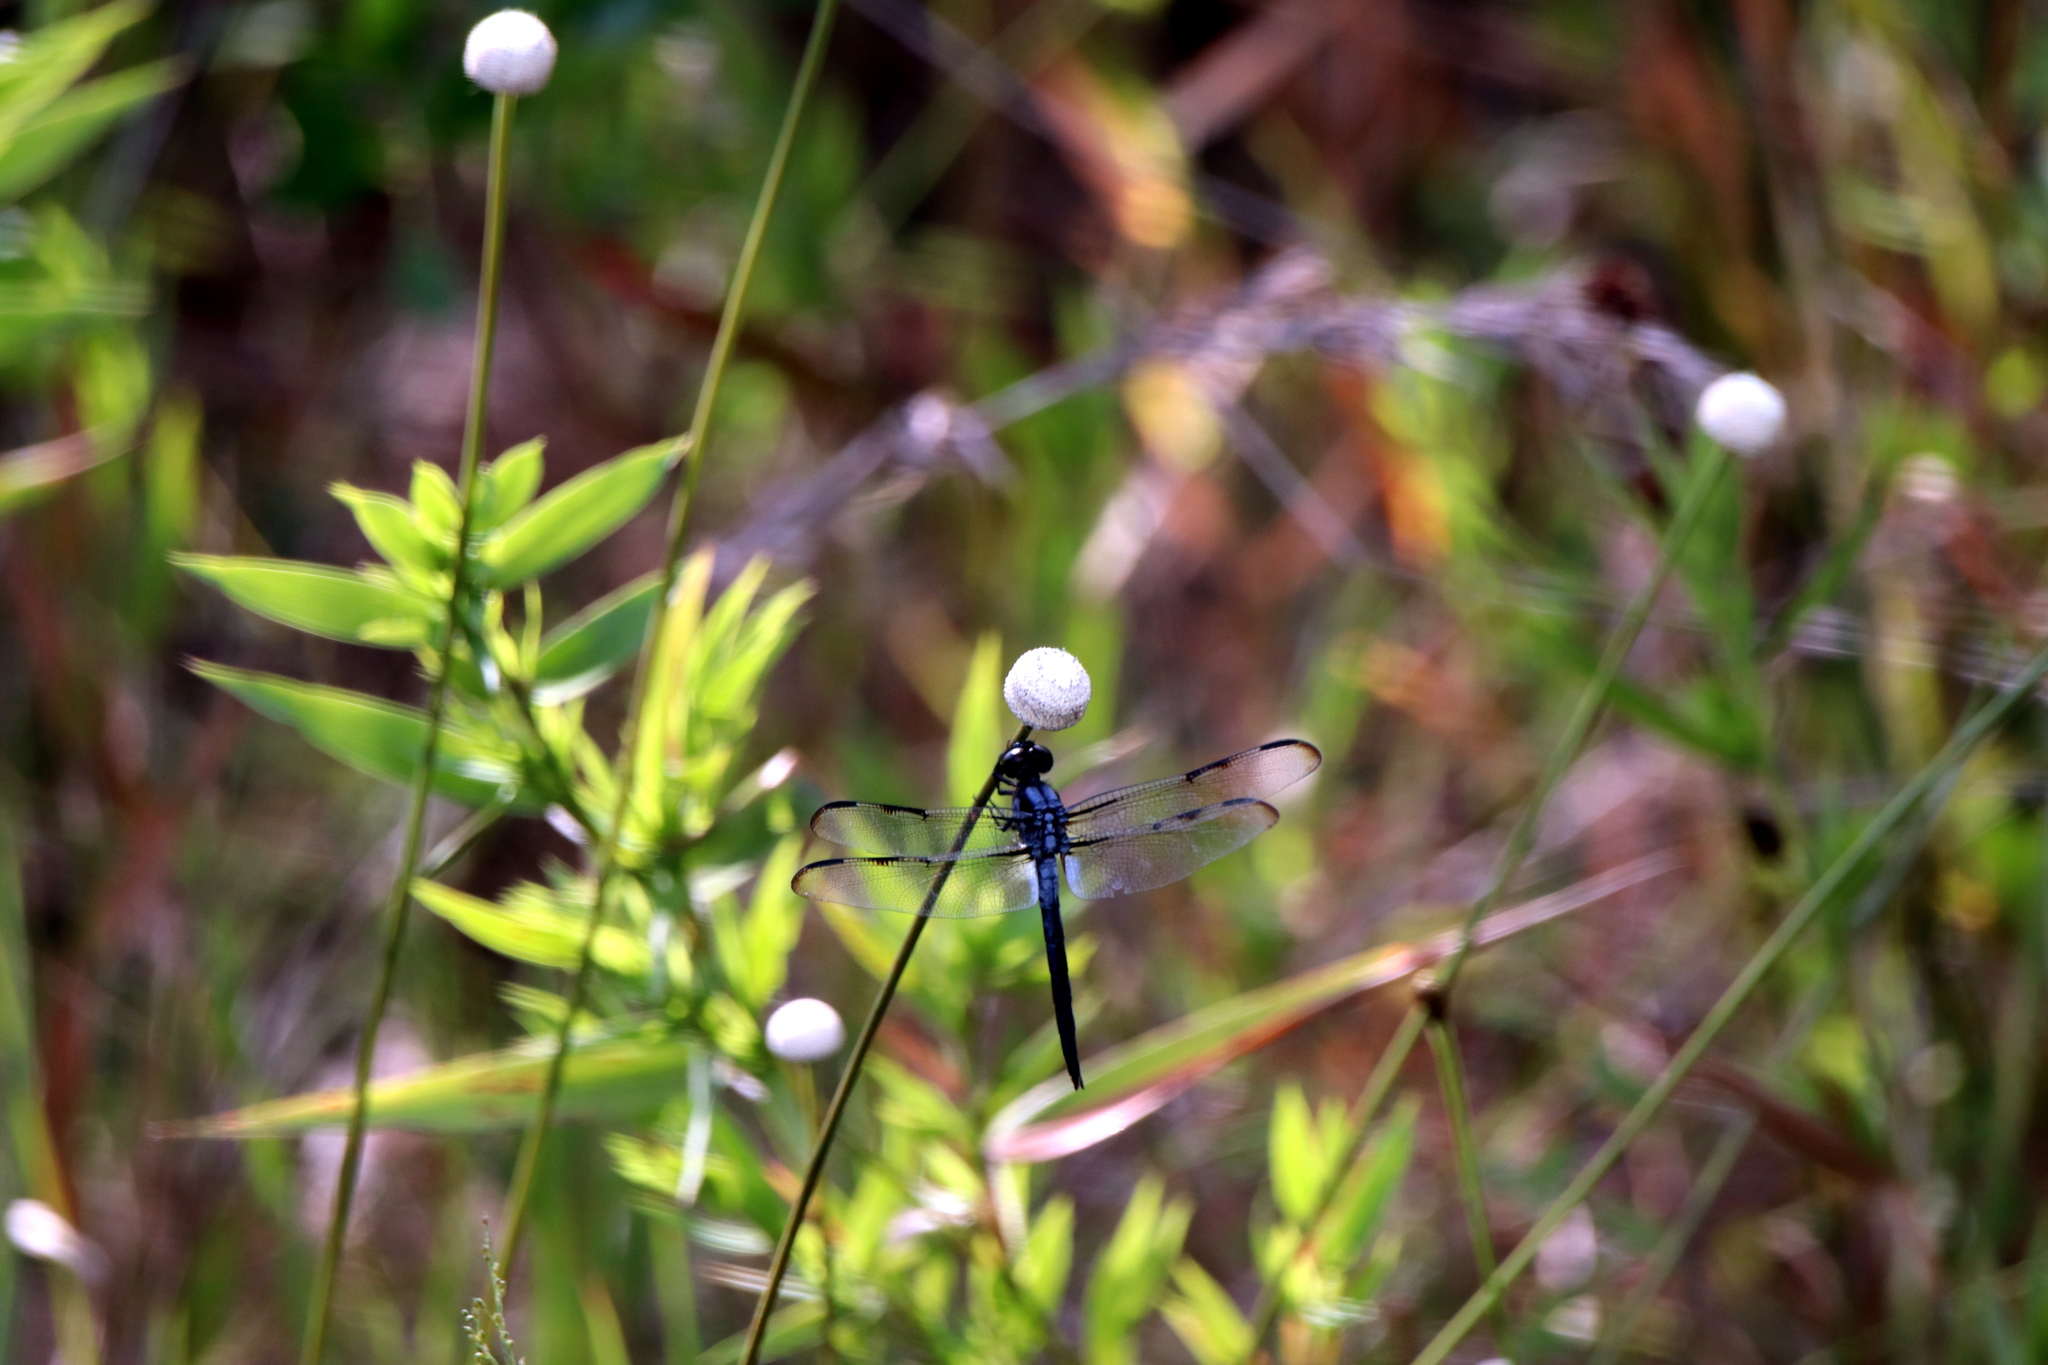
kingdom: Animalia
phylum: Arthropoda
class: Insecta
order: Odonata
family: Libellulidae
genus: Libellula
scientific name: Libellula axilena
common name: Bar-winged skimmer
